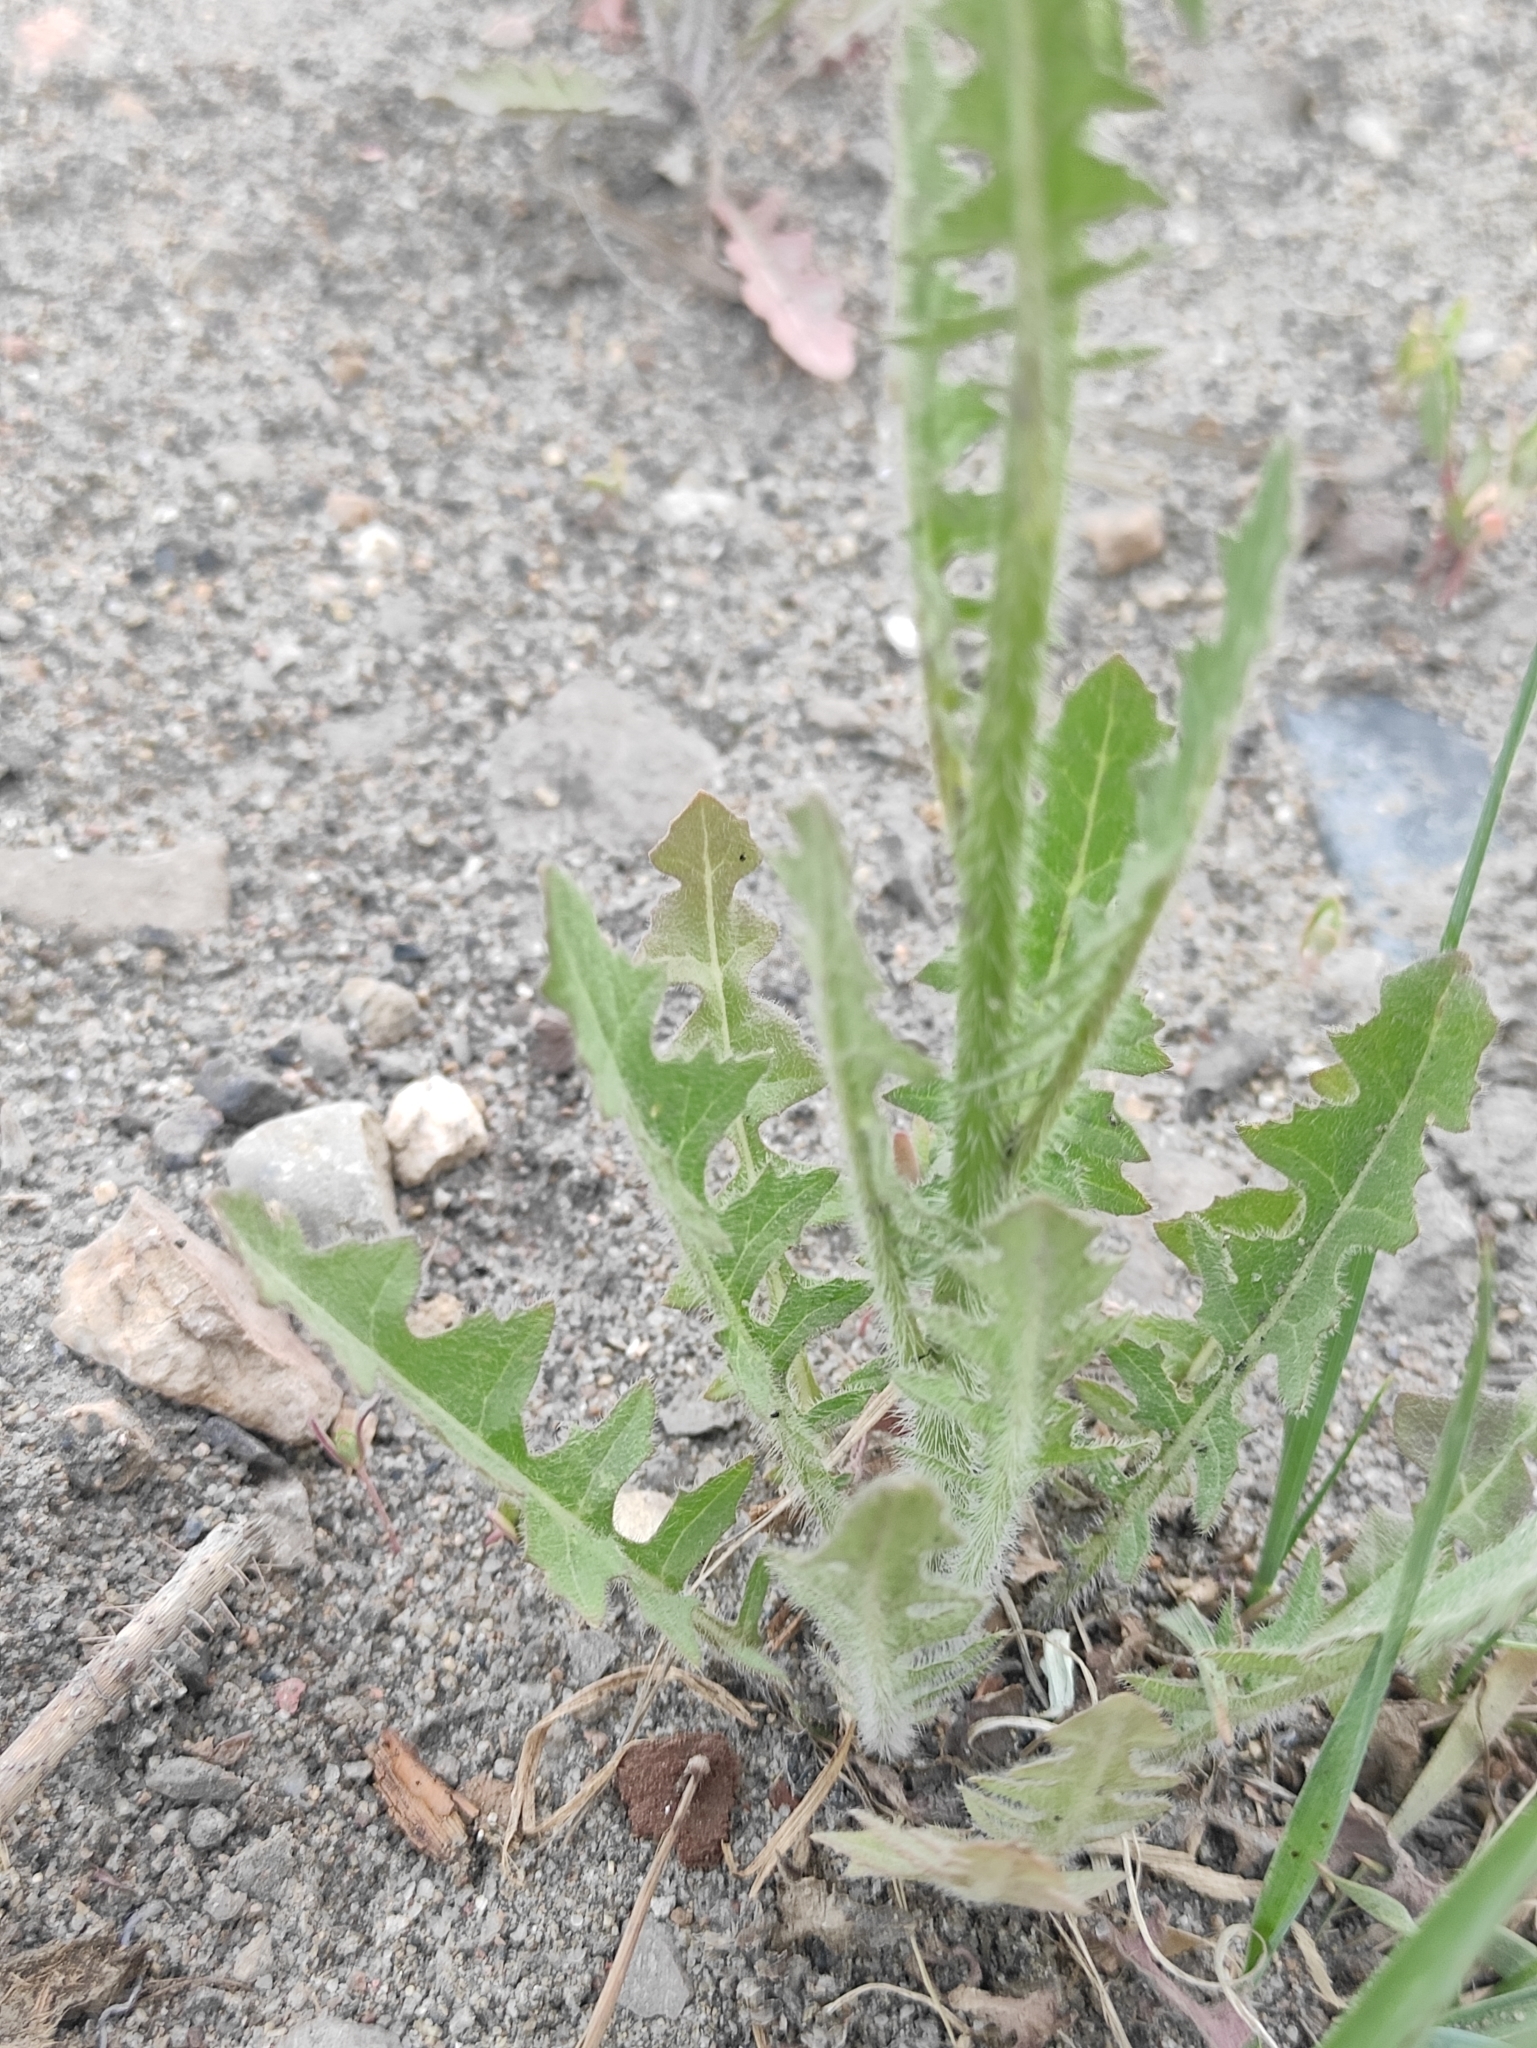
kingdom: Plantae
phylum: Tracheophyta
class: Magnoliopsida
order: Brassicales
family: Brassicaceae
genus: Sisymbrium
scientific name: Sisymbrium loeselii
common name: False london-rocket
